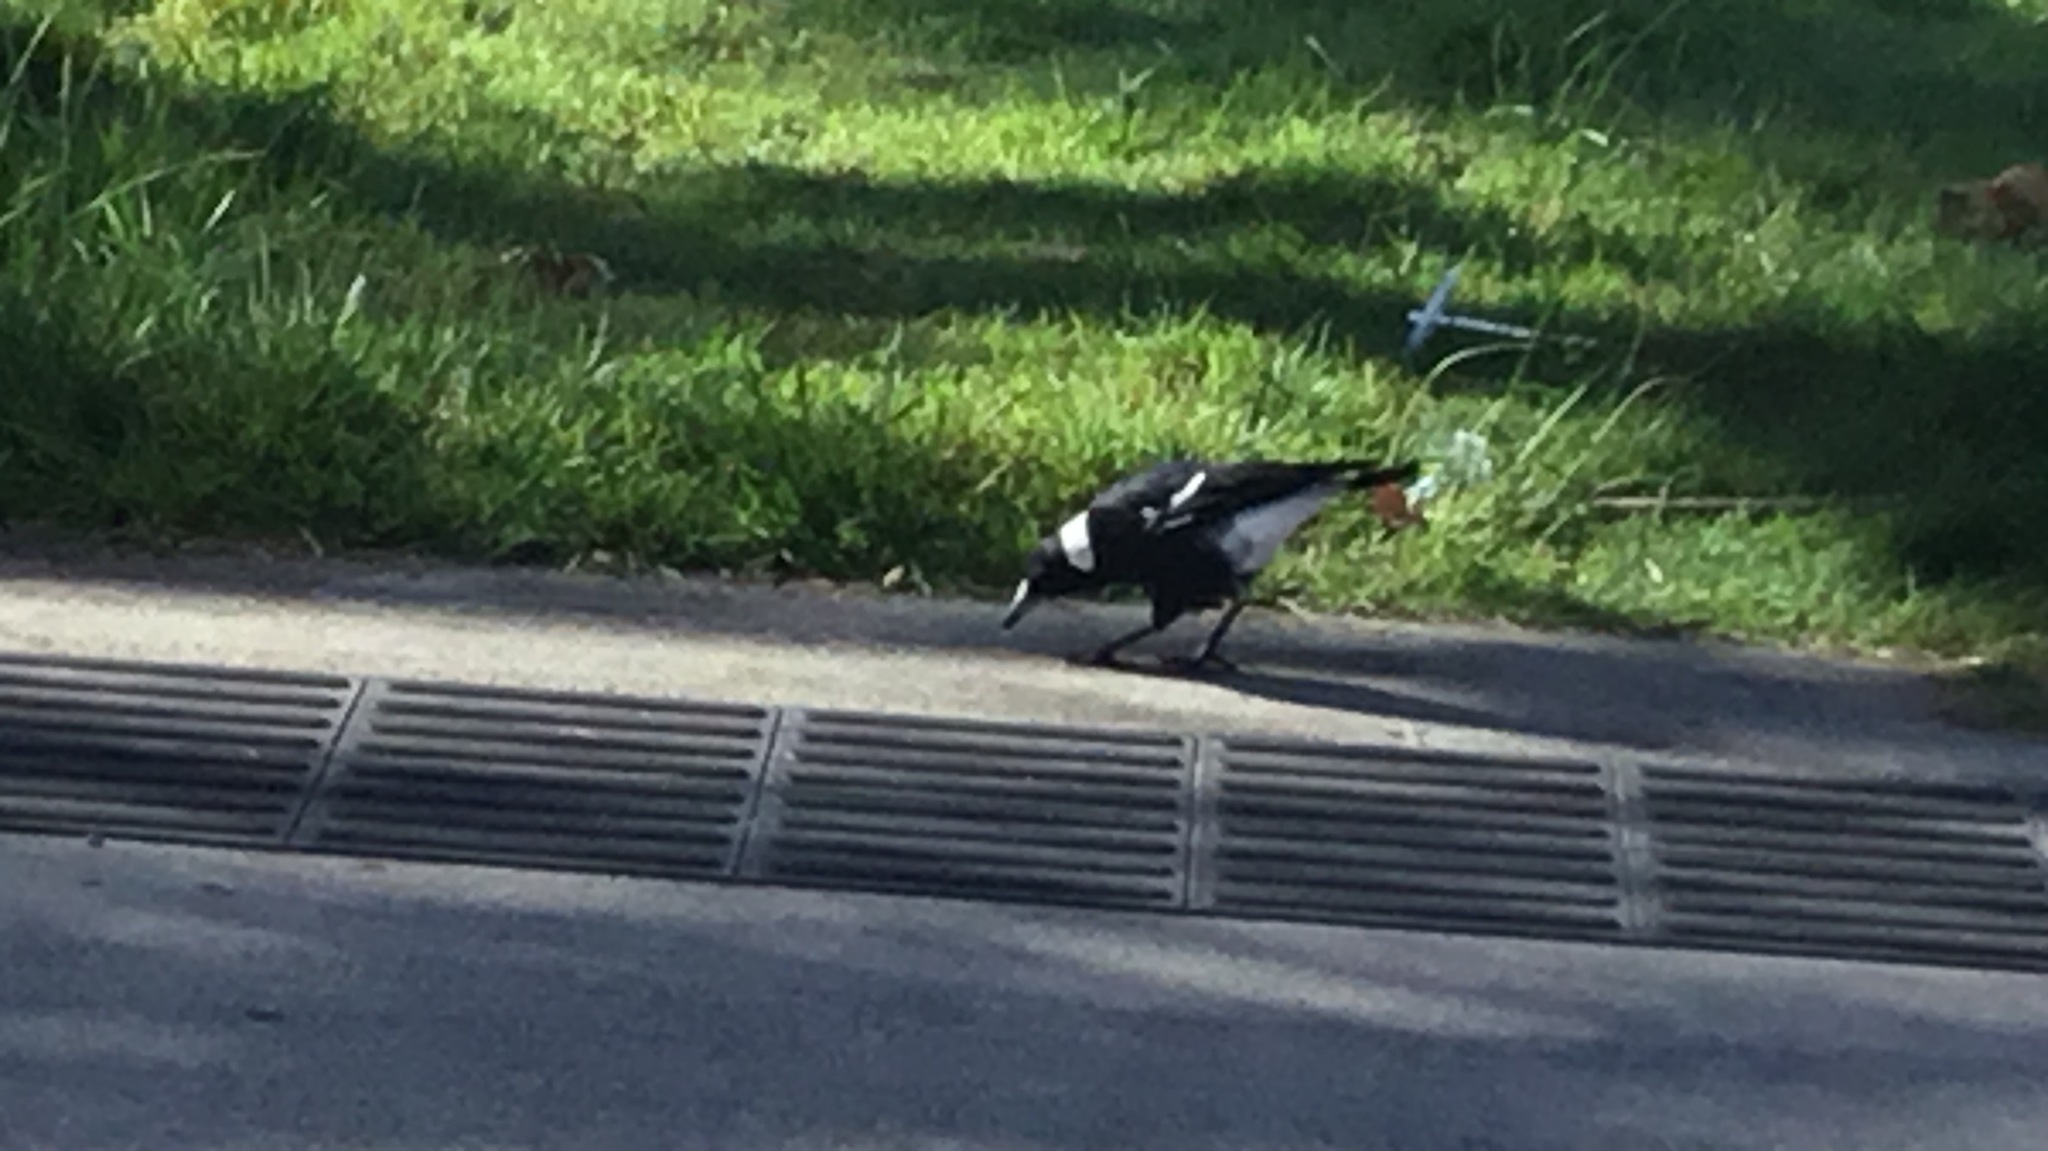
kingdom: Animalia
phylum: Chordata
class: Aves
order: Passeriformes
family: Cracticidae
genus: Gymnorhina
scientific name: Gymnorhina tibicen
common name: Australian magpie
